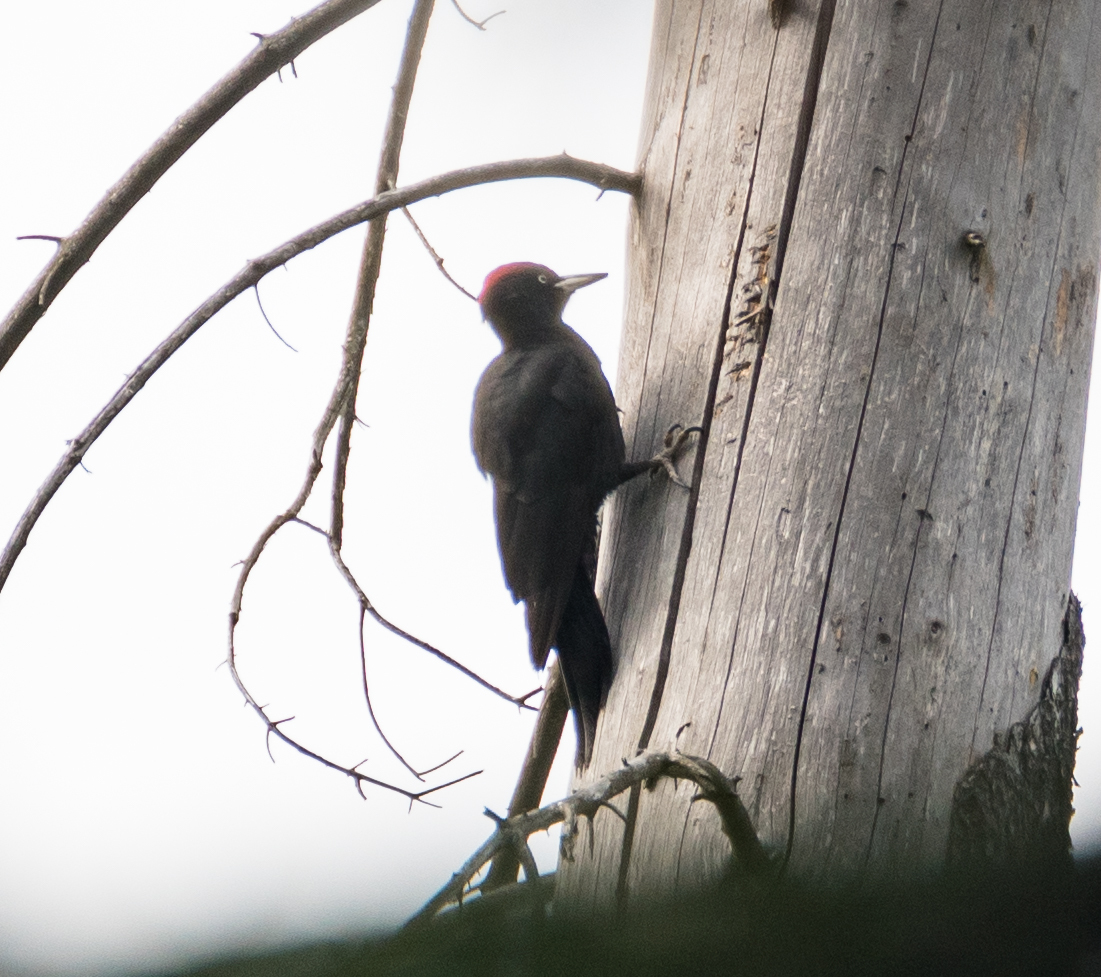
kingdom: Animalia
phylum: Chordata
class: Aves
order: Piciformes
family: Picidae
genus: Dryocopus
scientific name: Dryocopus martius
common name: Black woodpecker
